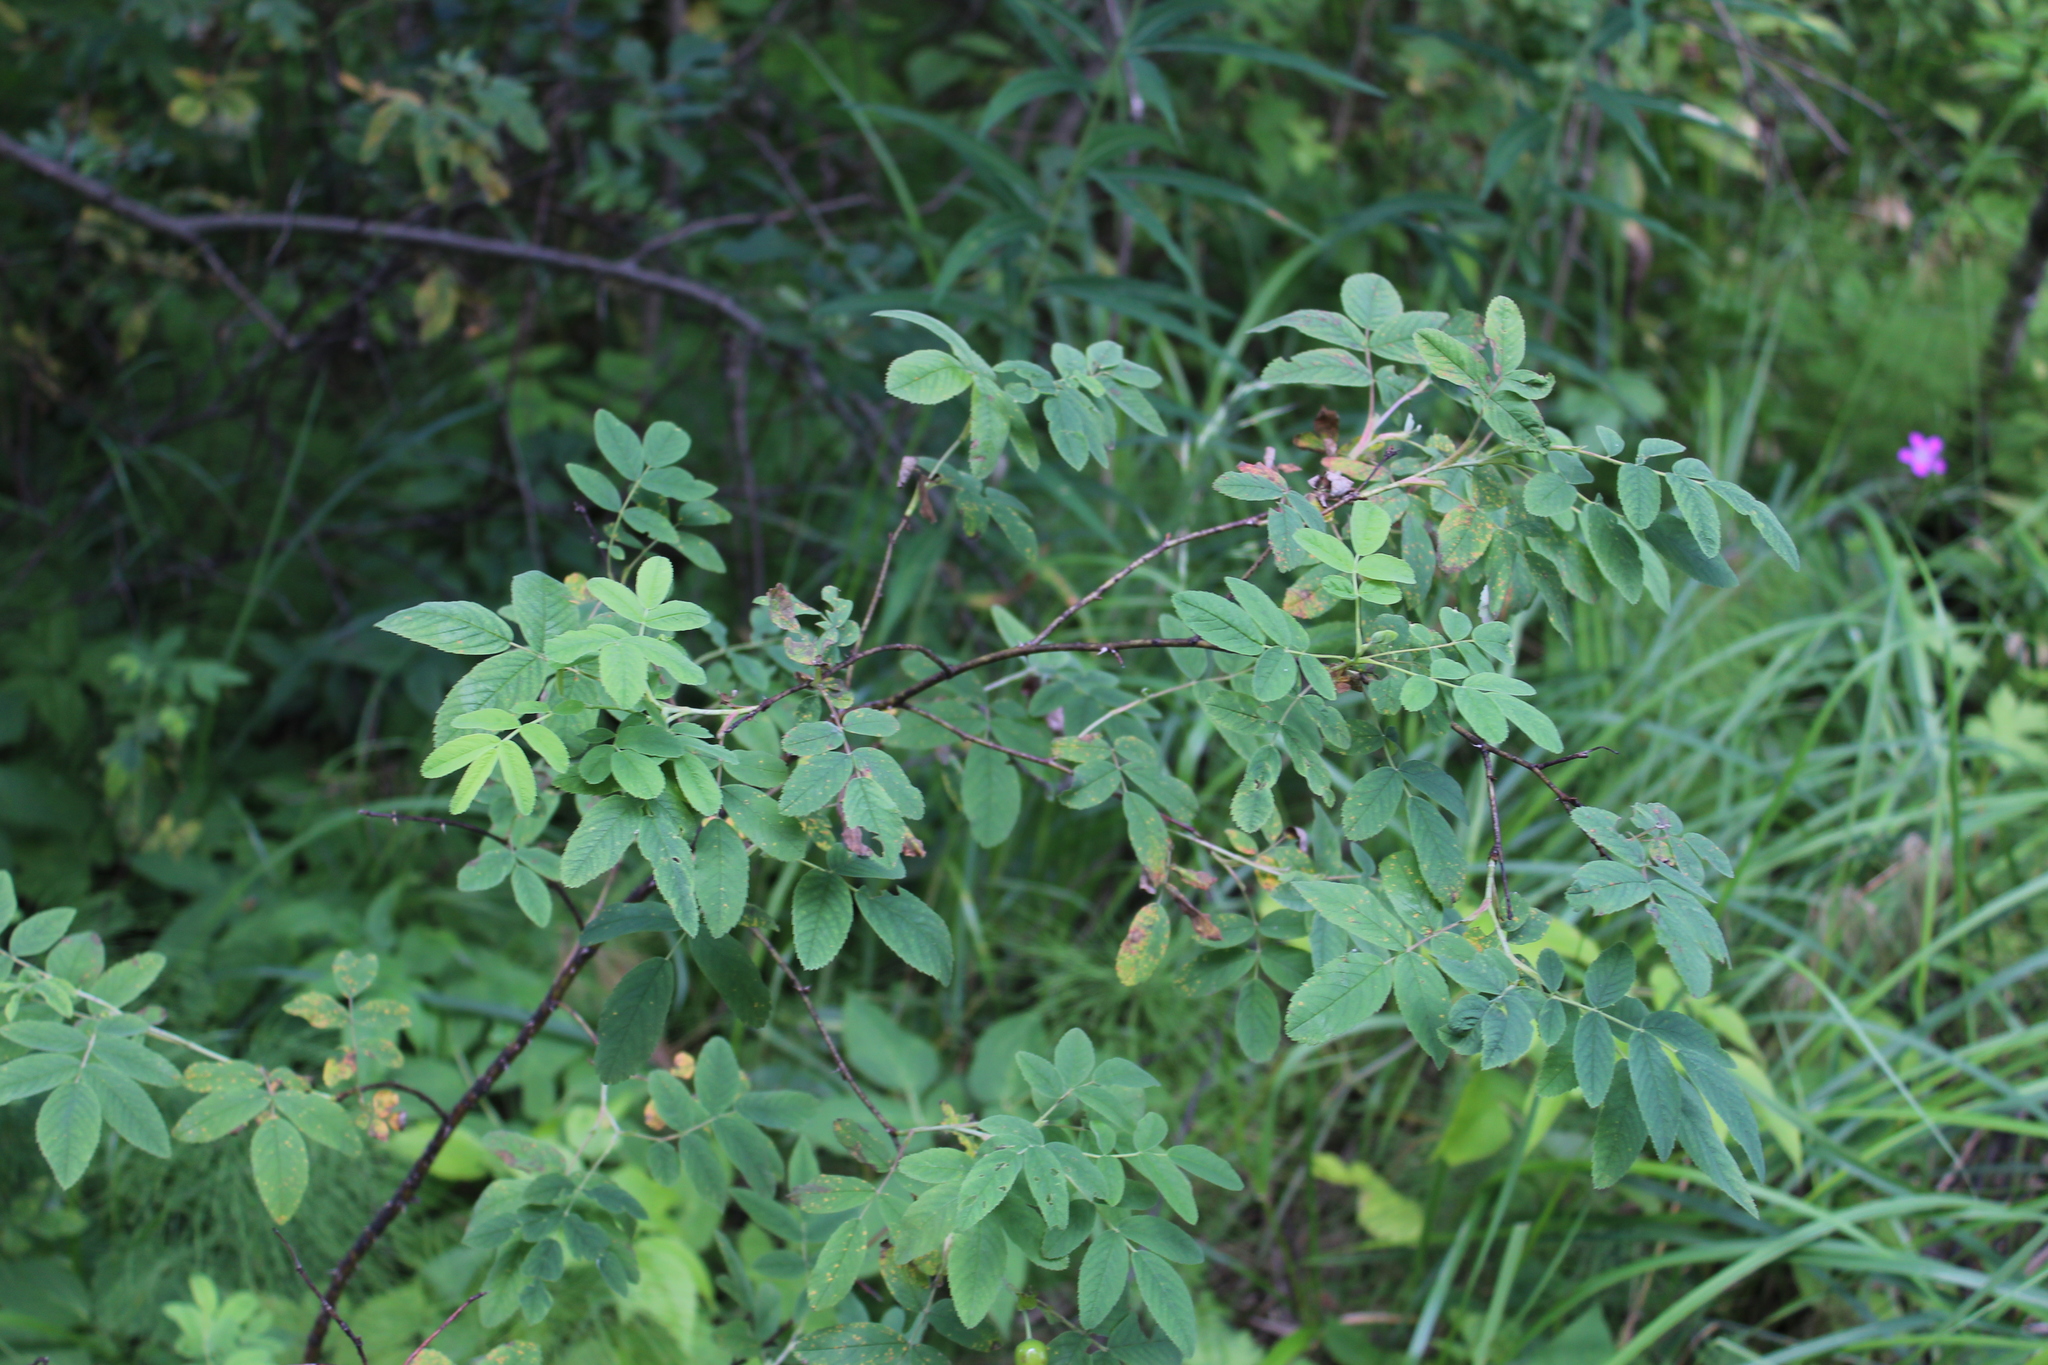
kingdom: Plantae
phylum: Tracheophyta
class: Magnoliopsida
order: Rosales
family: Rosaceae
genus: Rosa
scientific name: Rosa majalis
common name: Cinnamon rose
